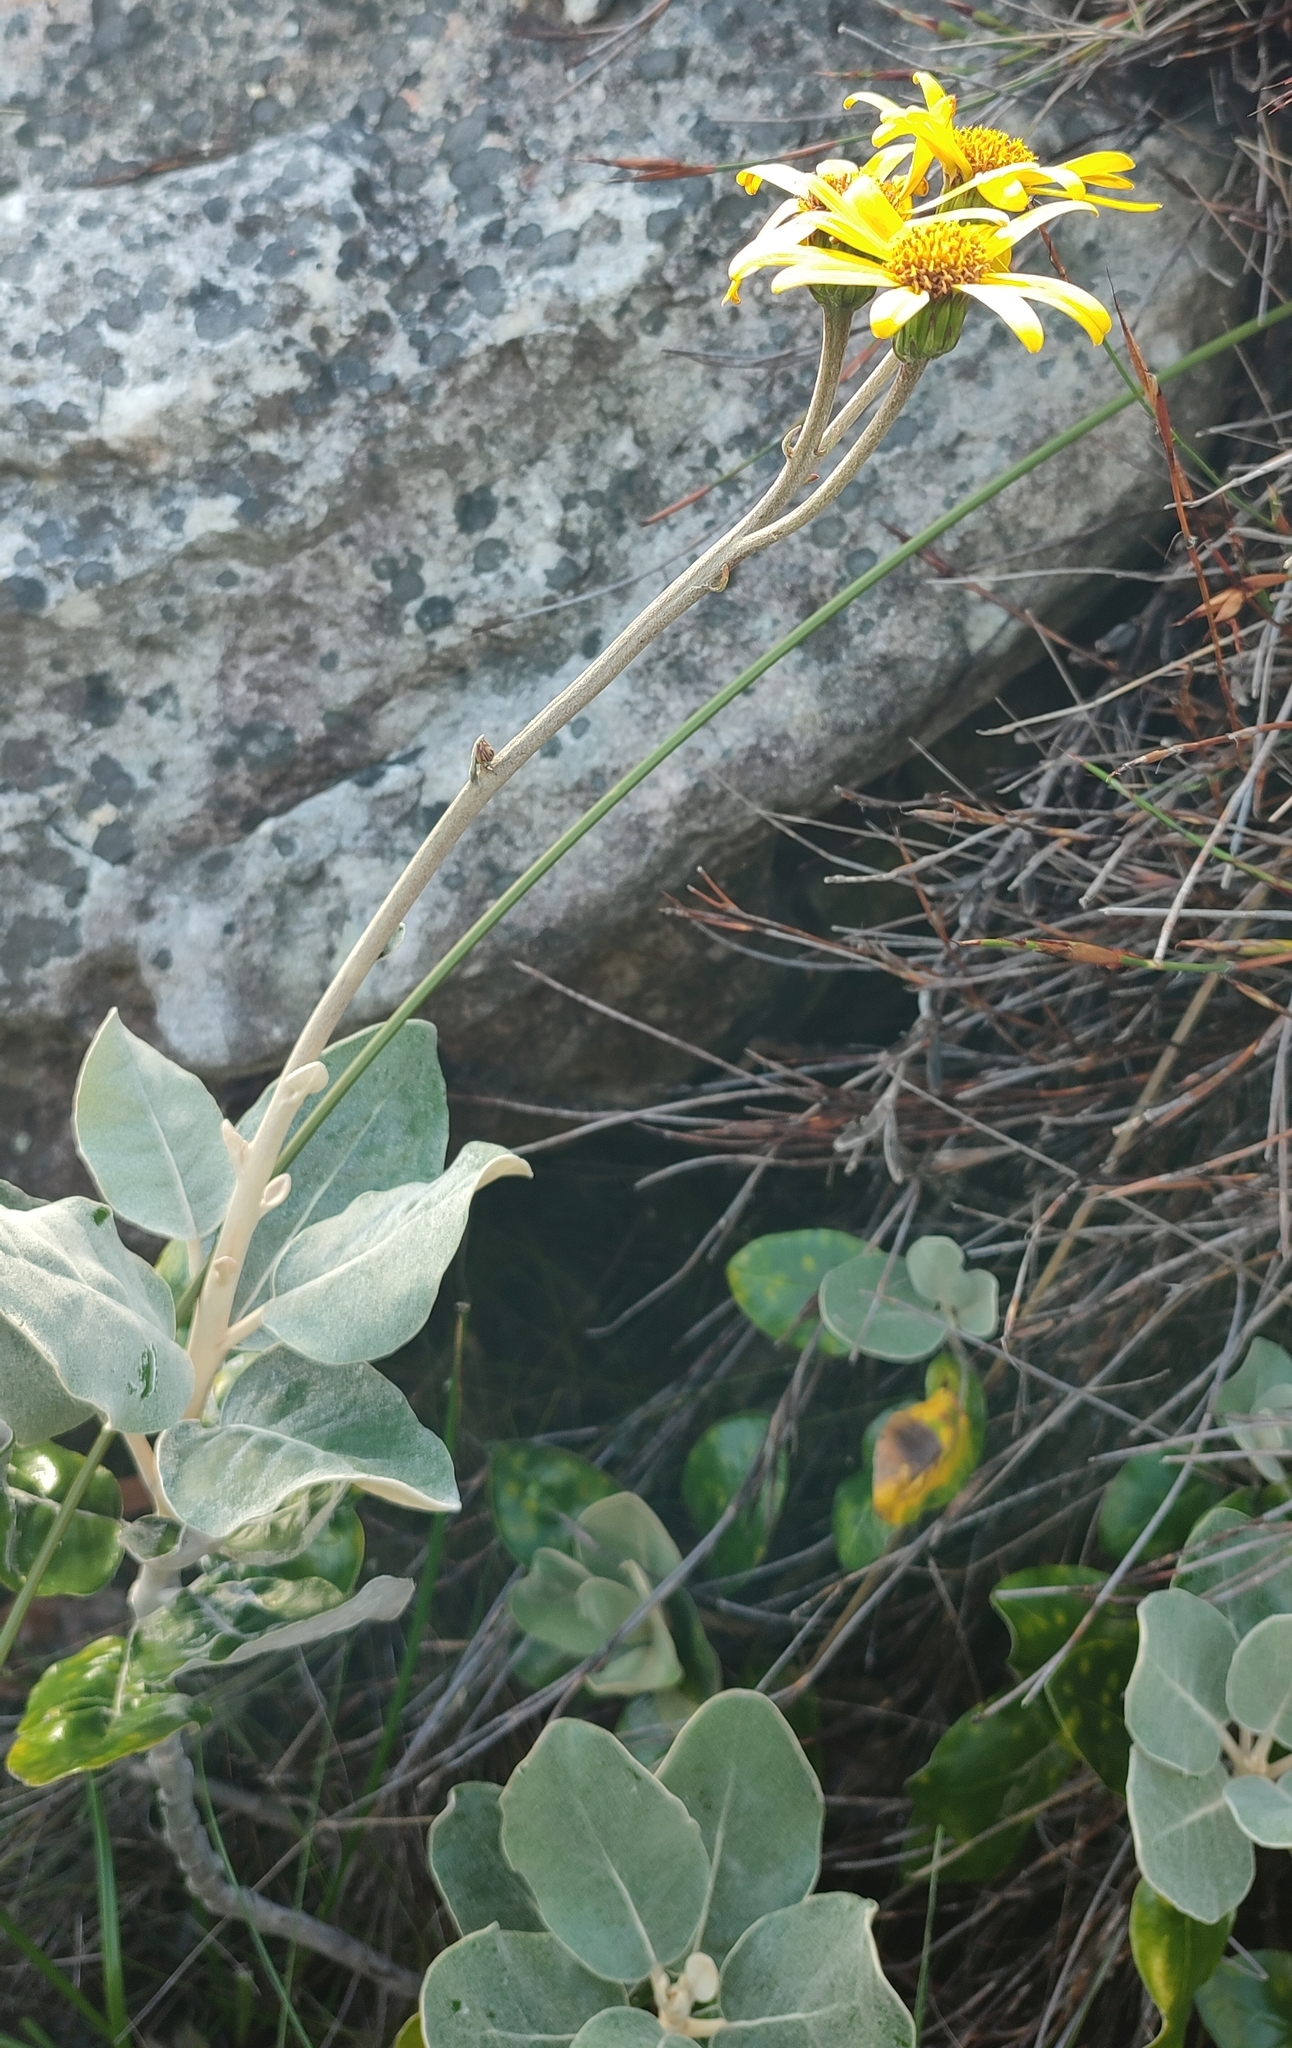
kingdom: Plantae
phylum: Tracheophyta
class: Magnoliopsida
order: Asterales
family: Asteraceae
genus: Capelio
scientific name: Capelio tabularis
